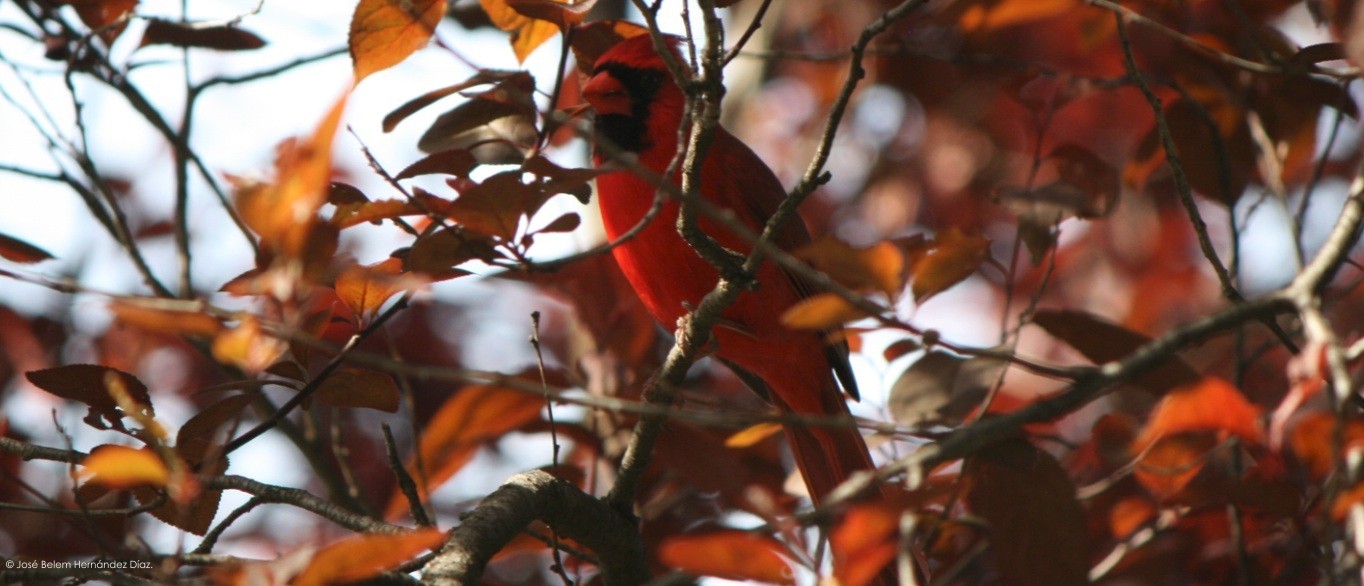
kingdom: Animalia
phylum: Chordata
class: Aves
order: Passeriformes
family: Cardinalidae
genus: Cardinalis
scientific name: Cardinalis cardinalis
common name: Northern cardinal
